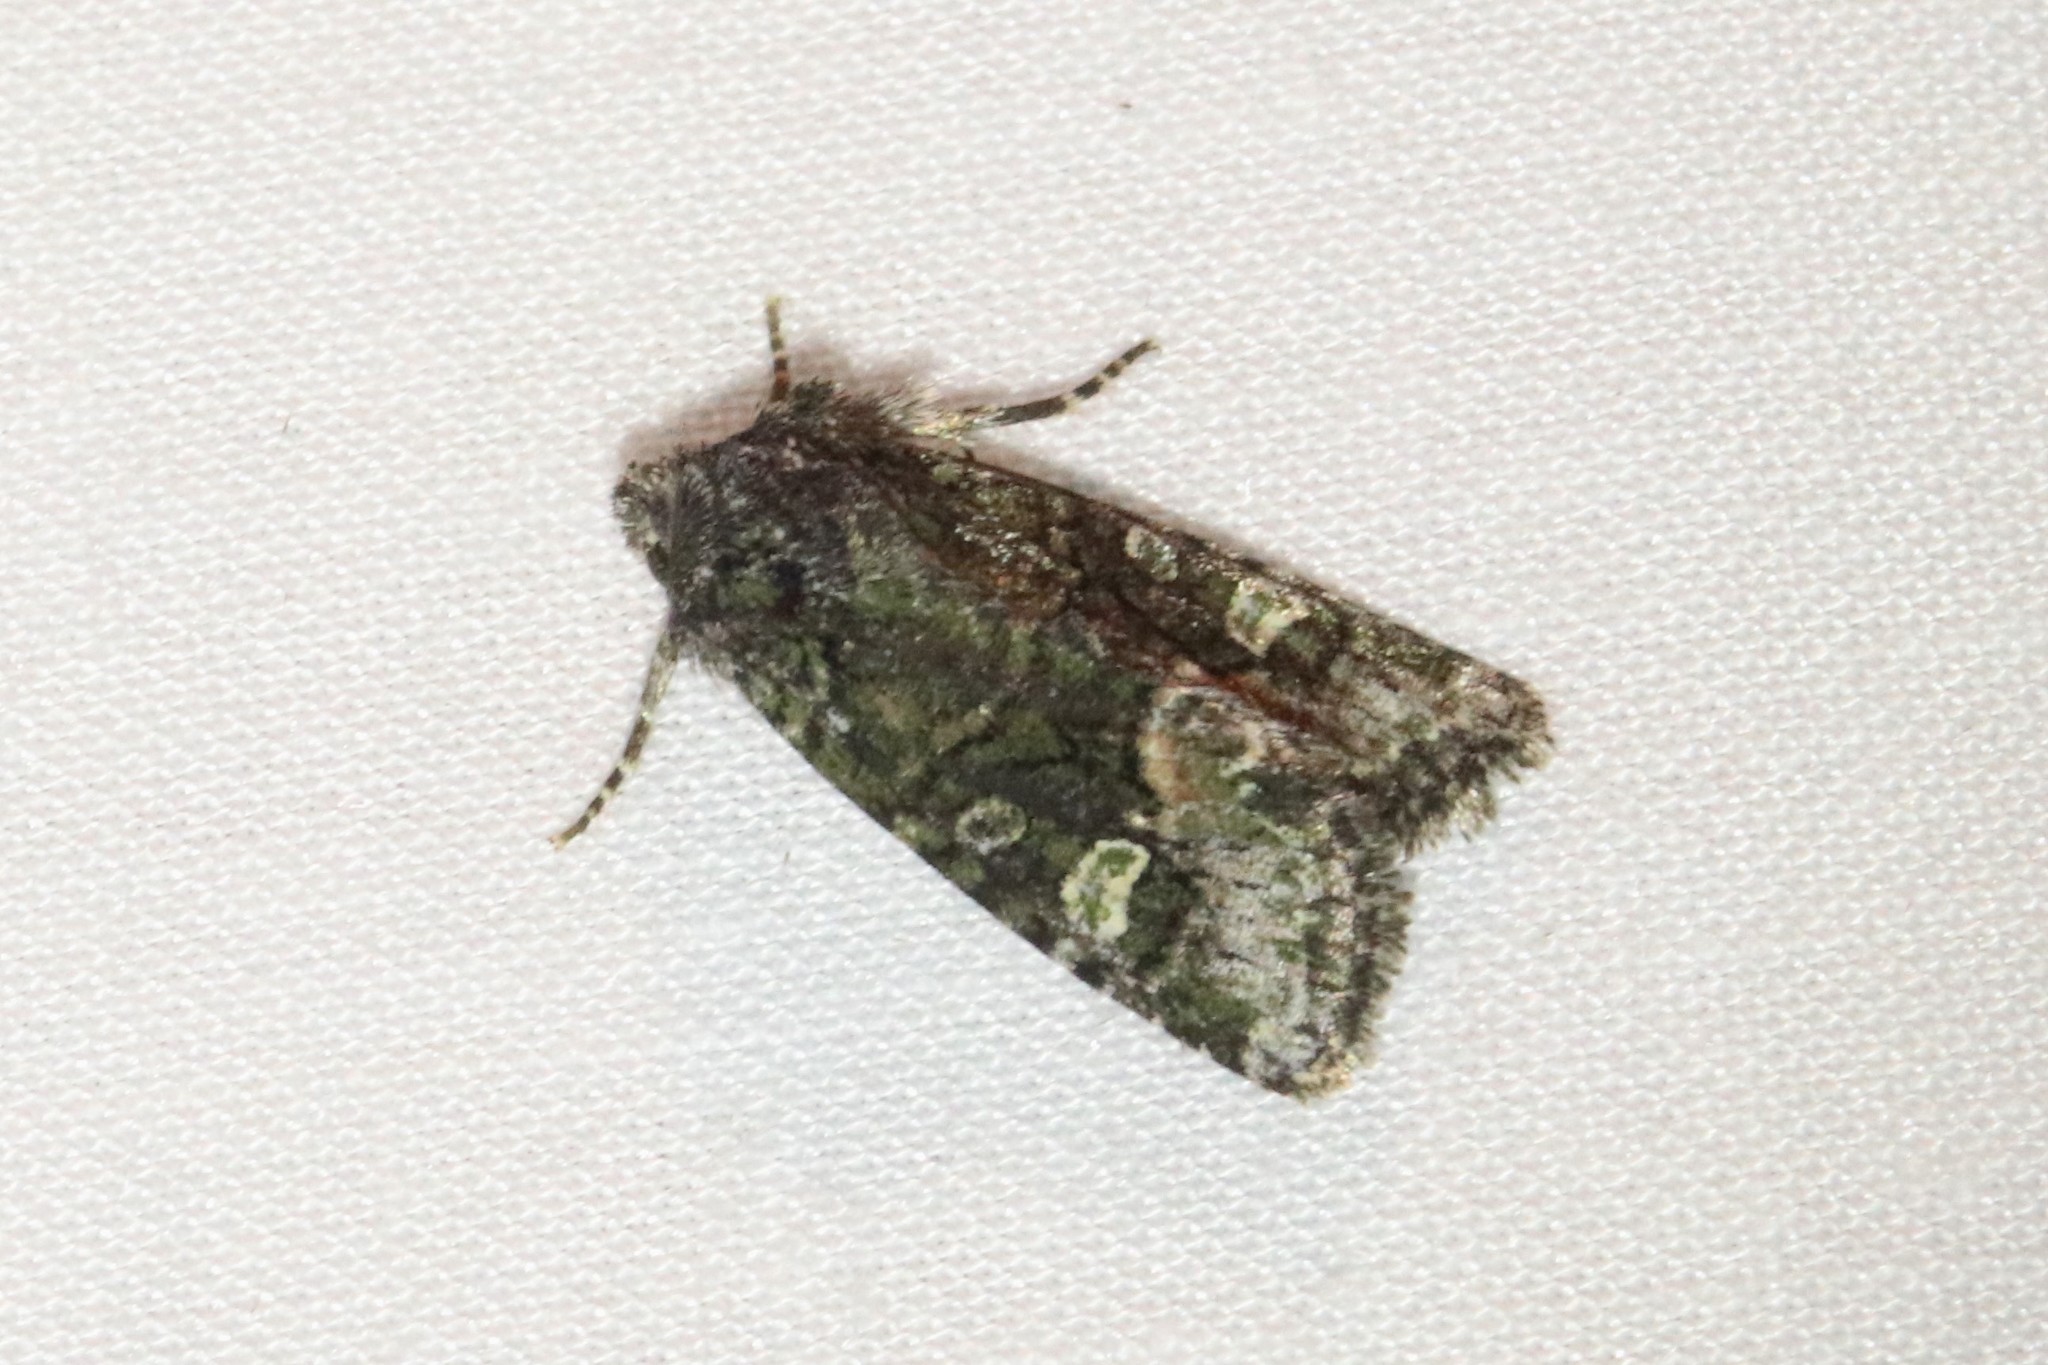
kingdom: Animalia
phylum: Arthropoda
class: Insecta
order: Lepidoptera
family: Noctuidae
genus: Lacinipolia
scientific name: Lacinipolia olivacea
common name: Olive arches moth
